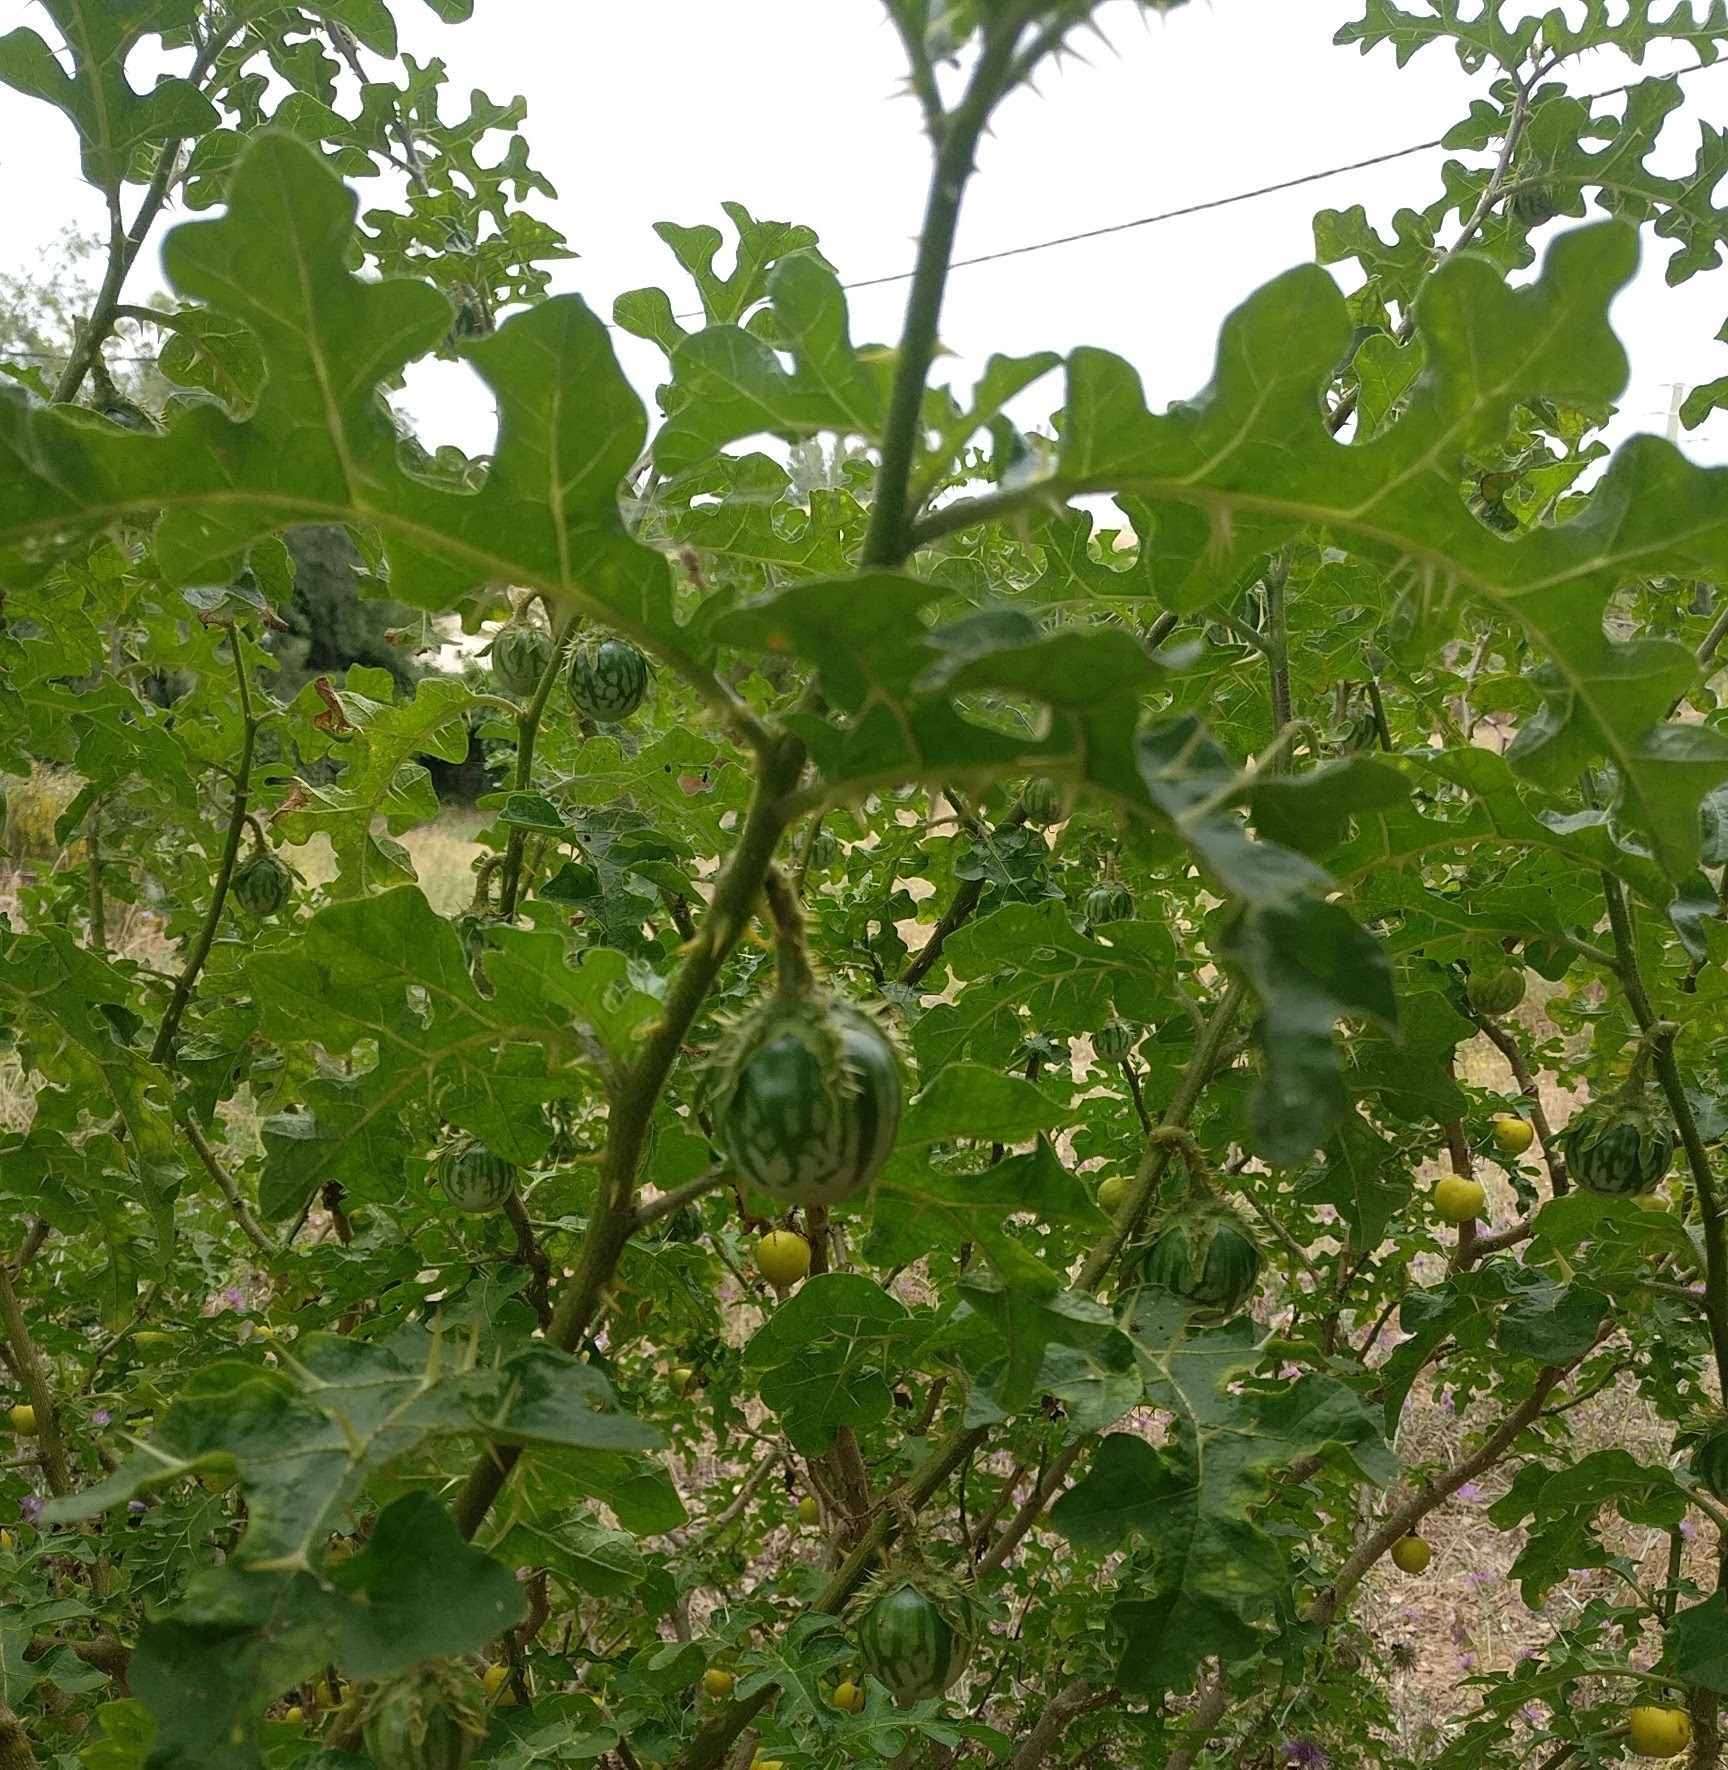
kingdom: Plantae
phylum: Tracheophyta
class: Magnoliopsida
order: Solanales
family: Solanaceae
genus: Solanum
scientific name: Solanum linnaeanum
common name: Nightshade
